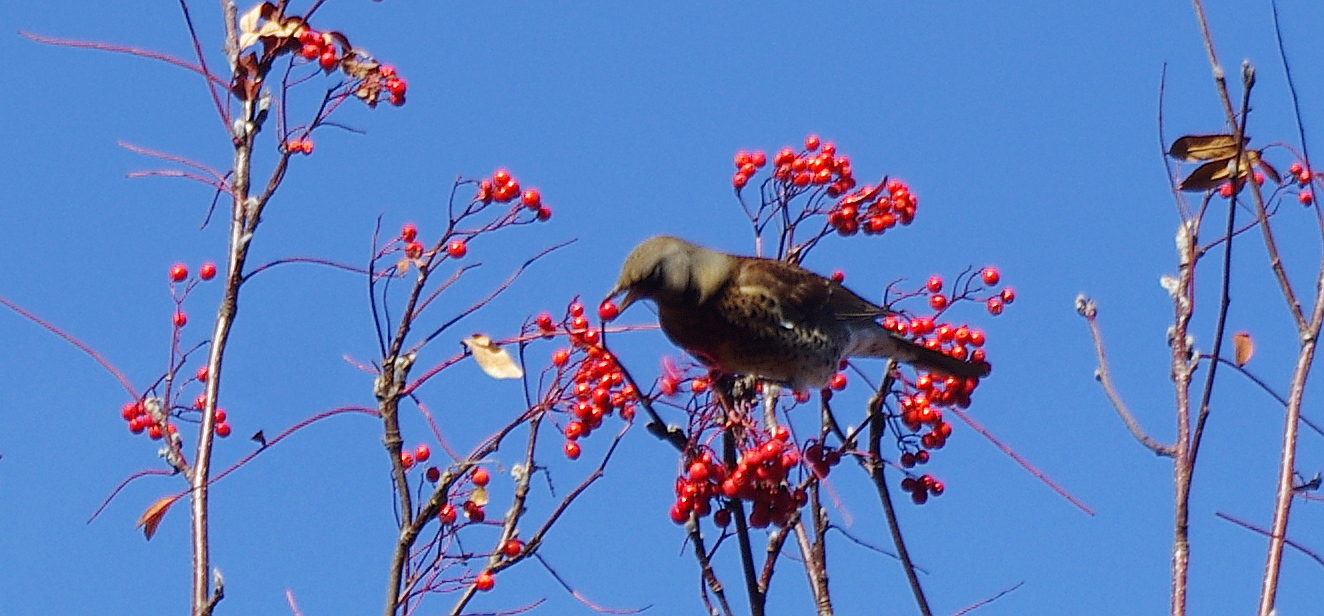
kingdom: Animalia
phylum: Chordata
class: Aves
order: Passeriformes
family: Turdidae
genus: Turdus
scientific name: Turdus pilaris
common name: Fieldfare
